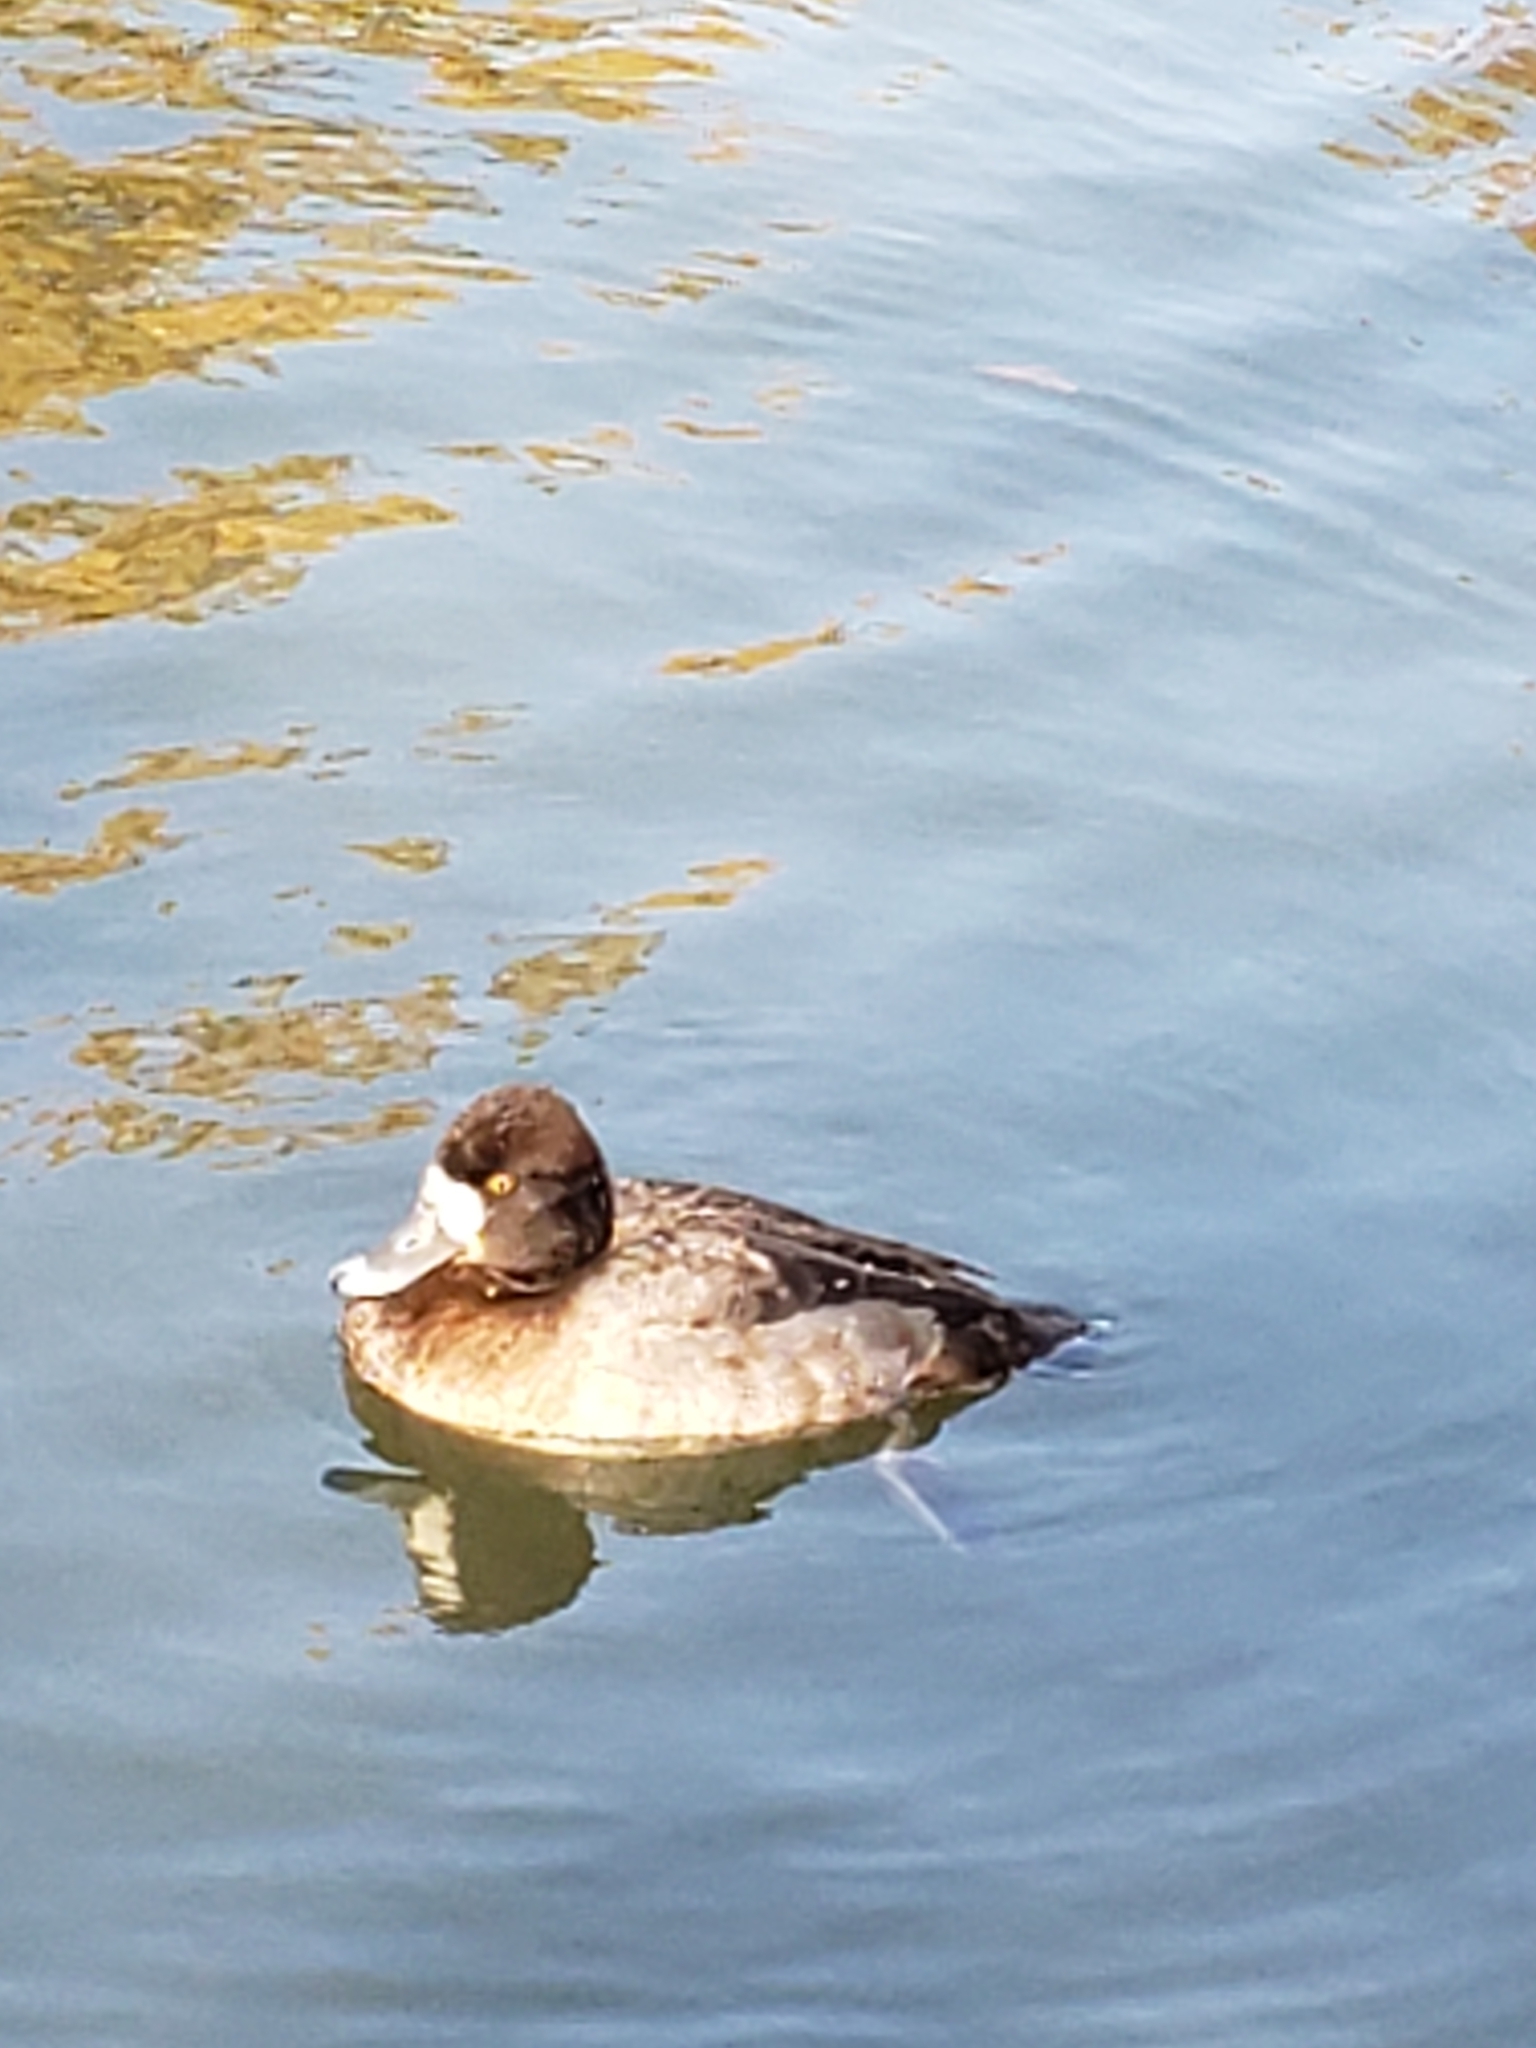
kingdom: Animalia
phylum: Chordata
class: Aves
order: Anseriformes
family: Anatidae
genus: Aythya
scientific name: Aythya affinis
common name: Lesser scaup
